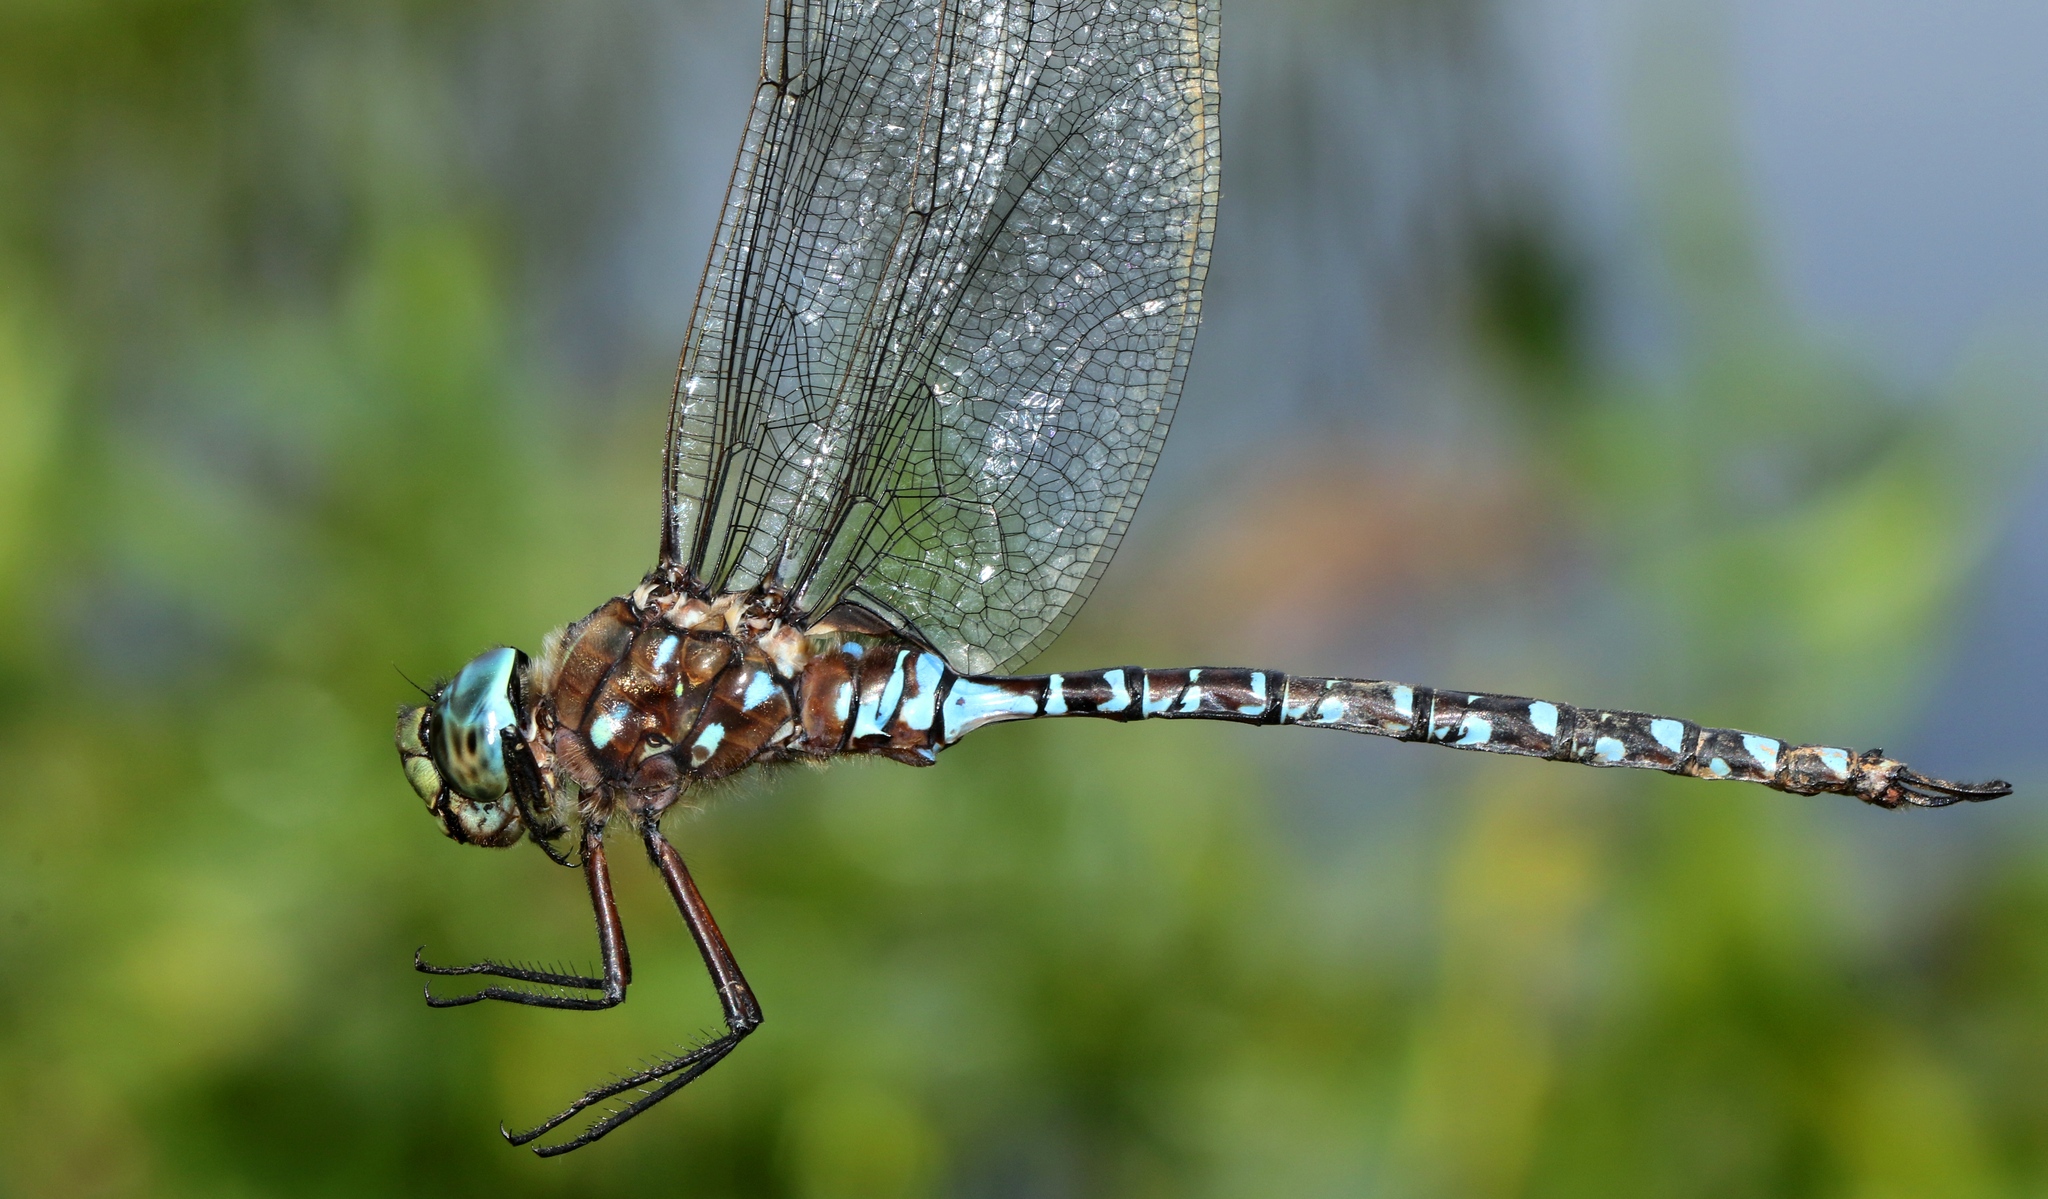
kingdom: Animalia
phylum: Arthropoda
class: Insecta
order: Odonata
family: Aeshnidae
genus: Aeshna
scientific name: Aeshna interrupta
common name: Variable darner
